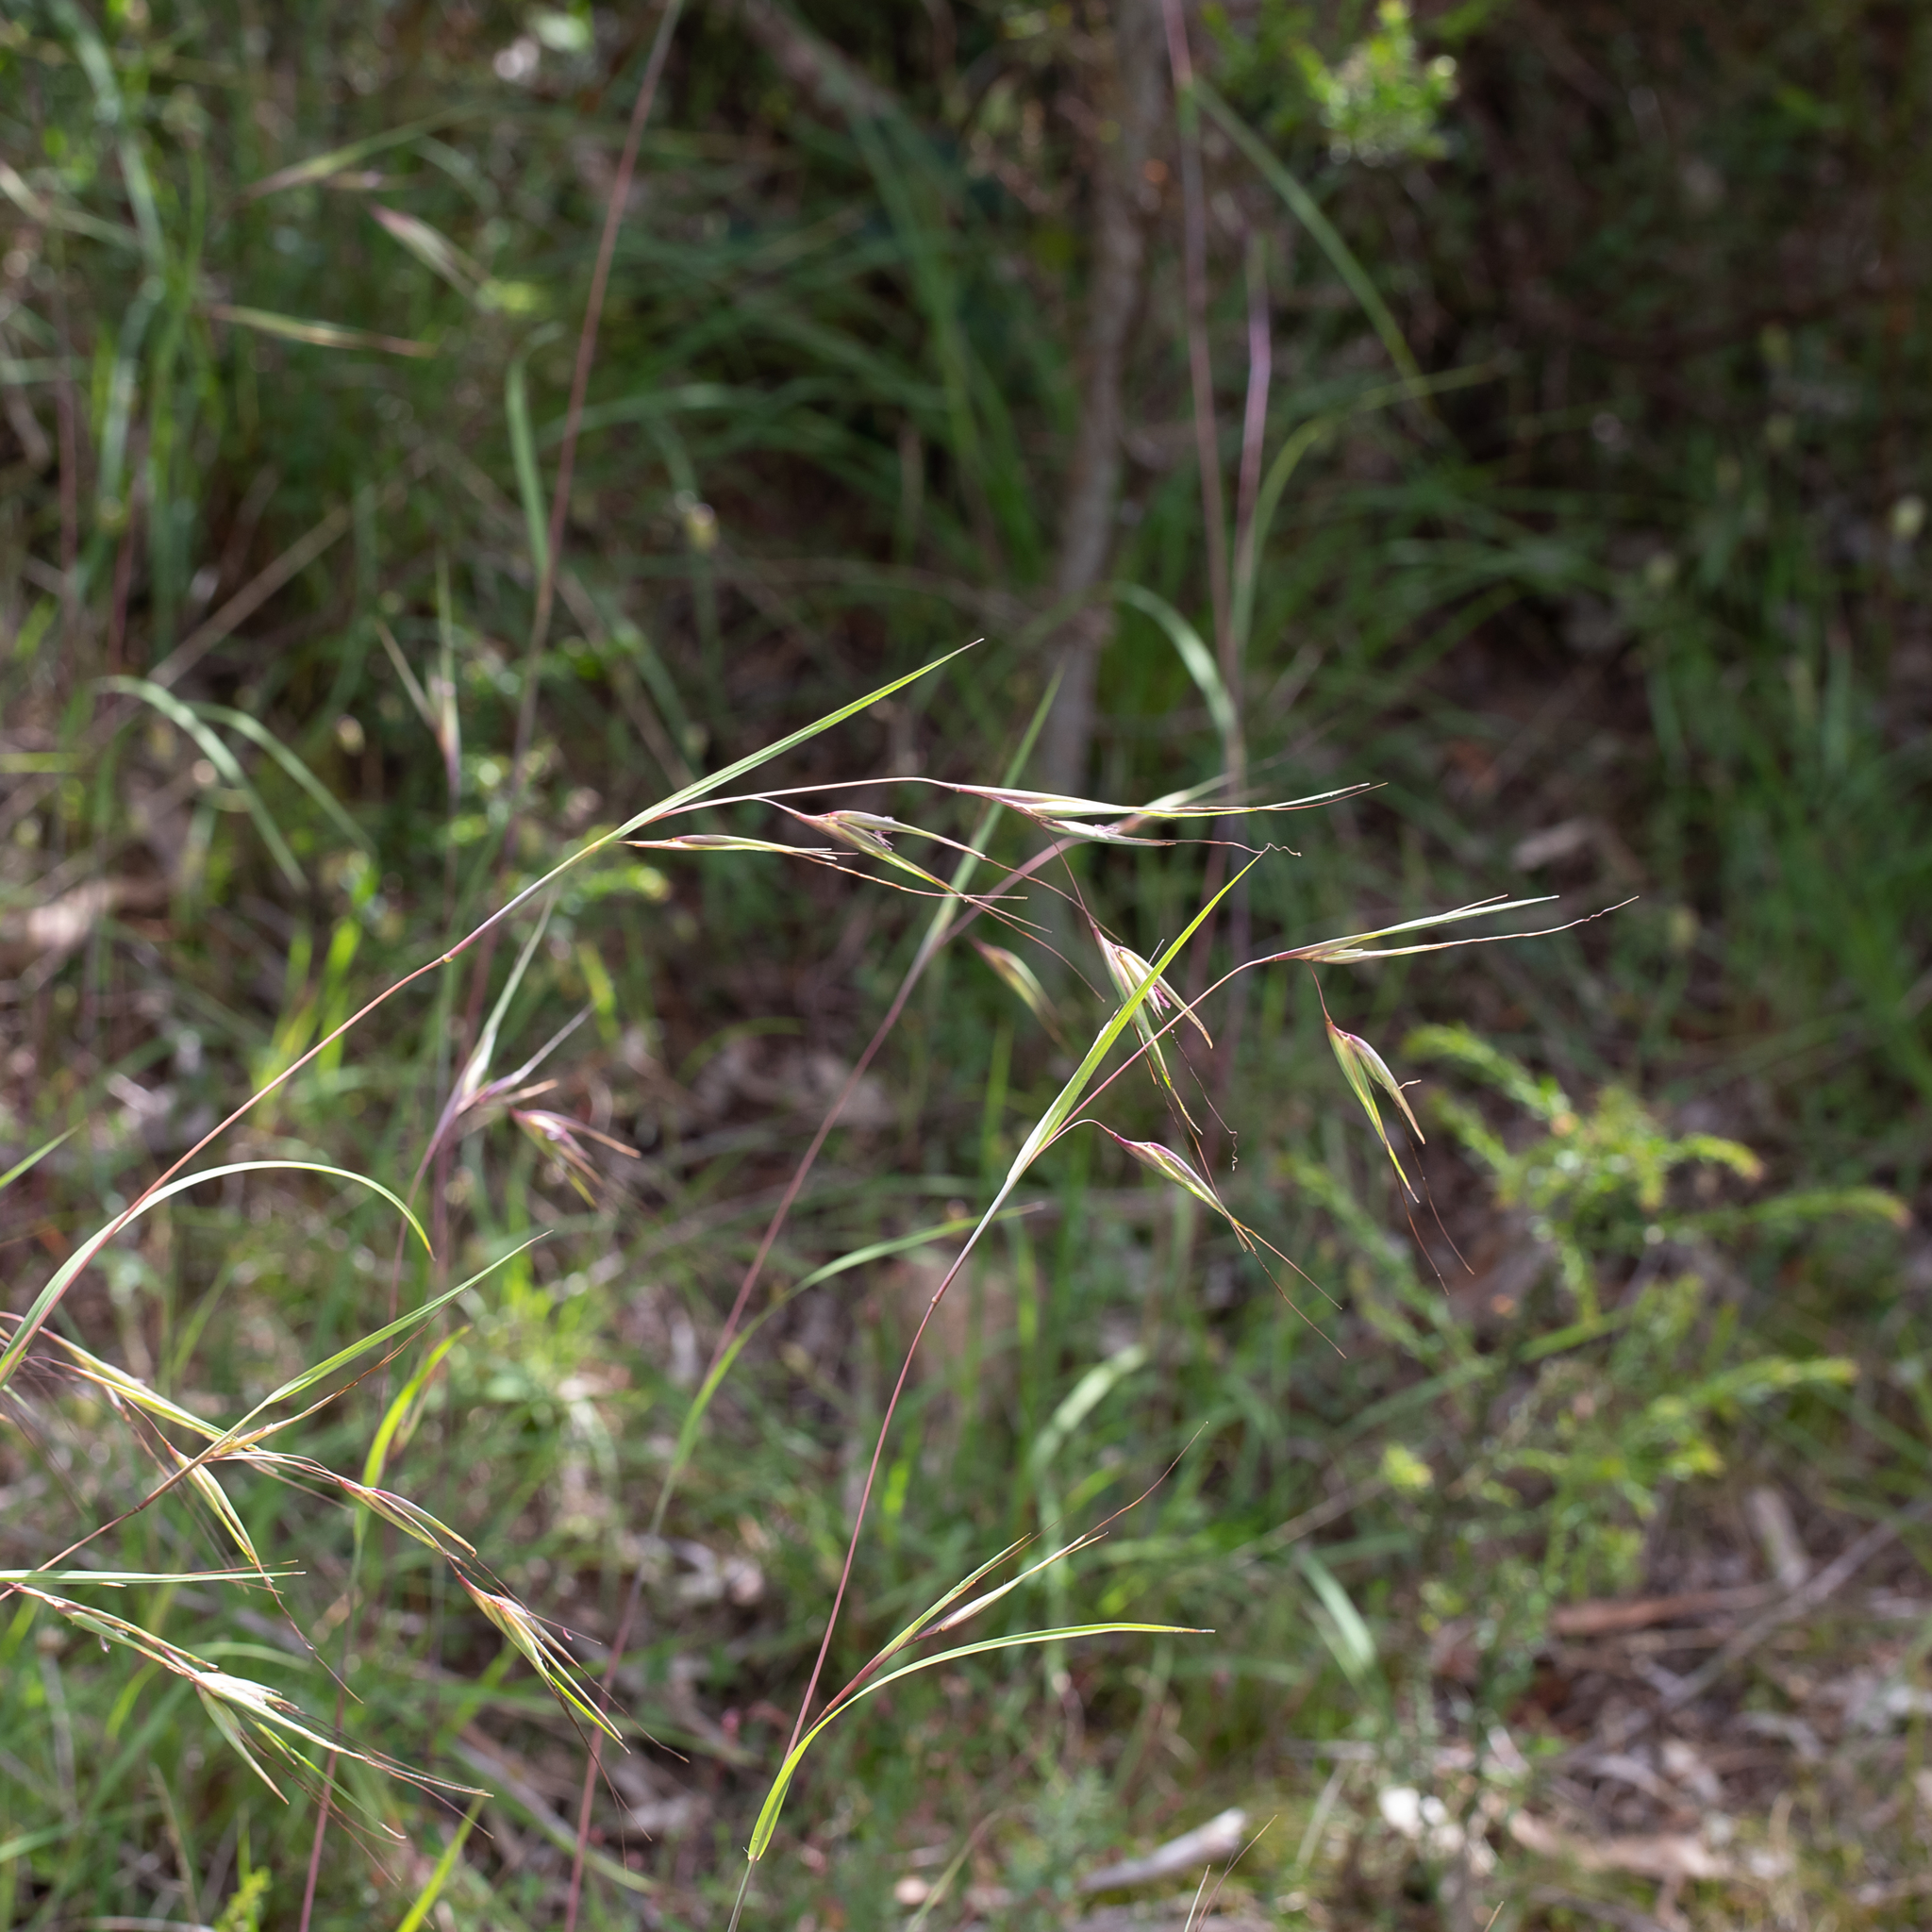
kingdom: Plantae
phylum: Tracheophyta
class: Liliopsida
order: Poales
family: Poaceae
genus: Themeda
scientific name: Themeda triandra
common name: Kangaroo grass
